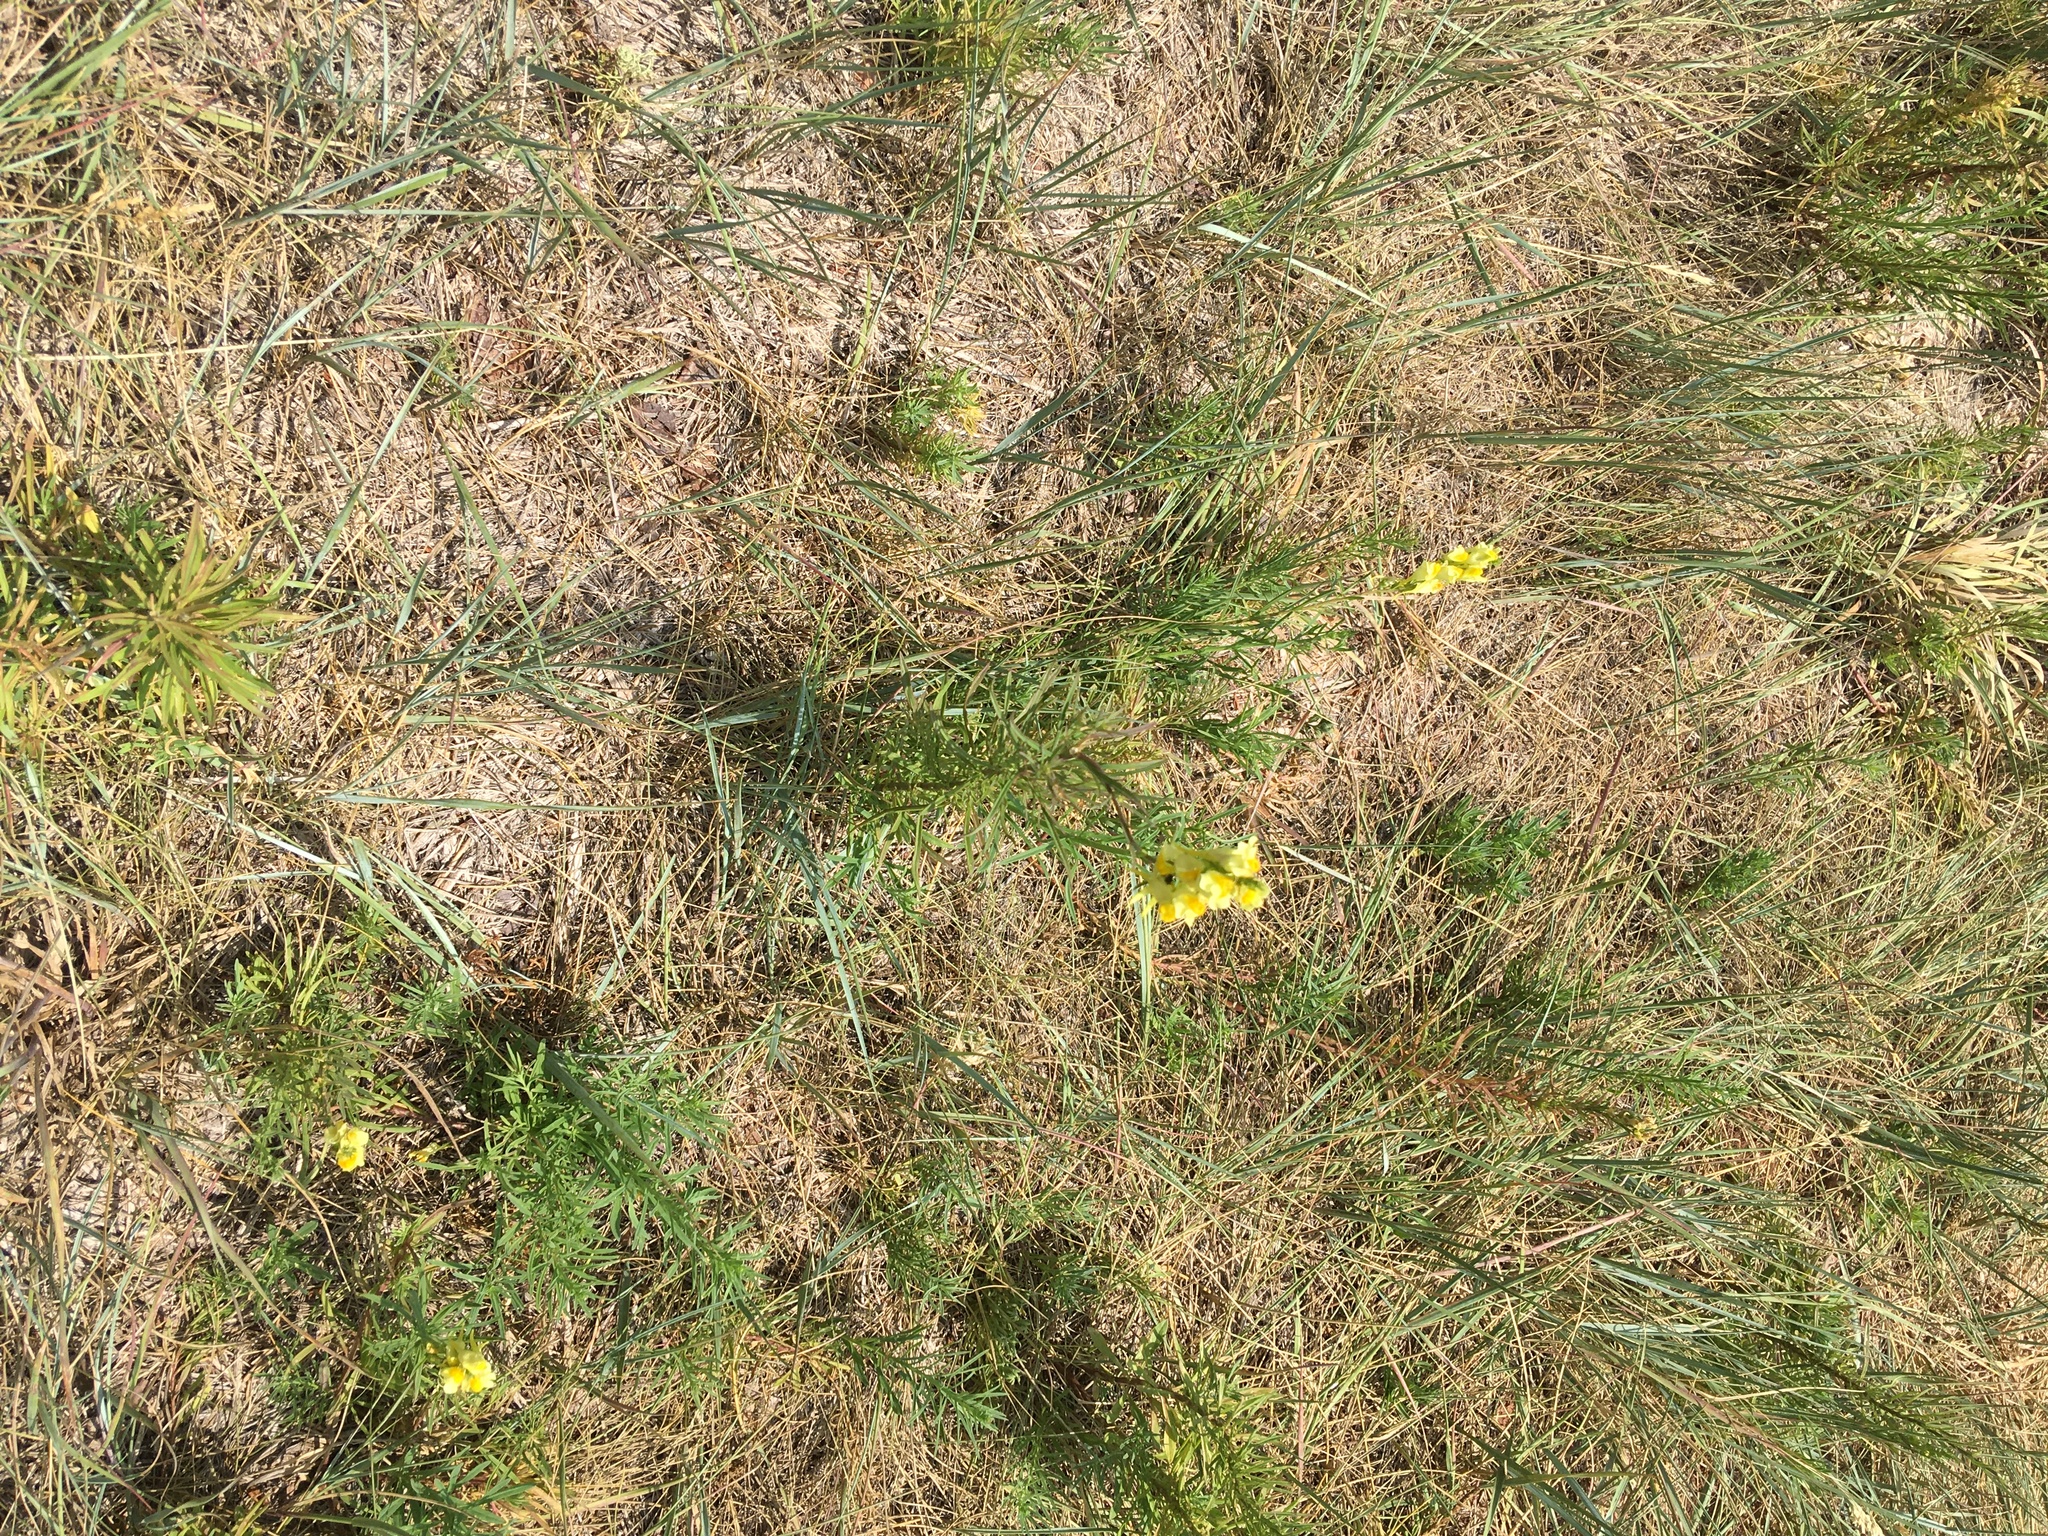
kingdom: Plantae
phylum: Tracheophyta
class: Magnoliopsida
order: Lamiales
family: Plantaginaceae
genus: Linaria
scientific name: Linaria vulgaris
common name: Butter and eggs
